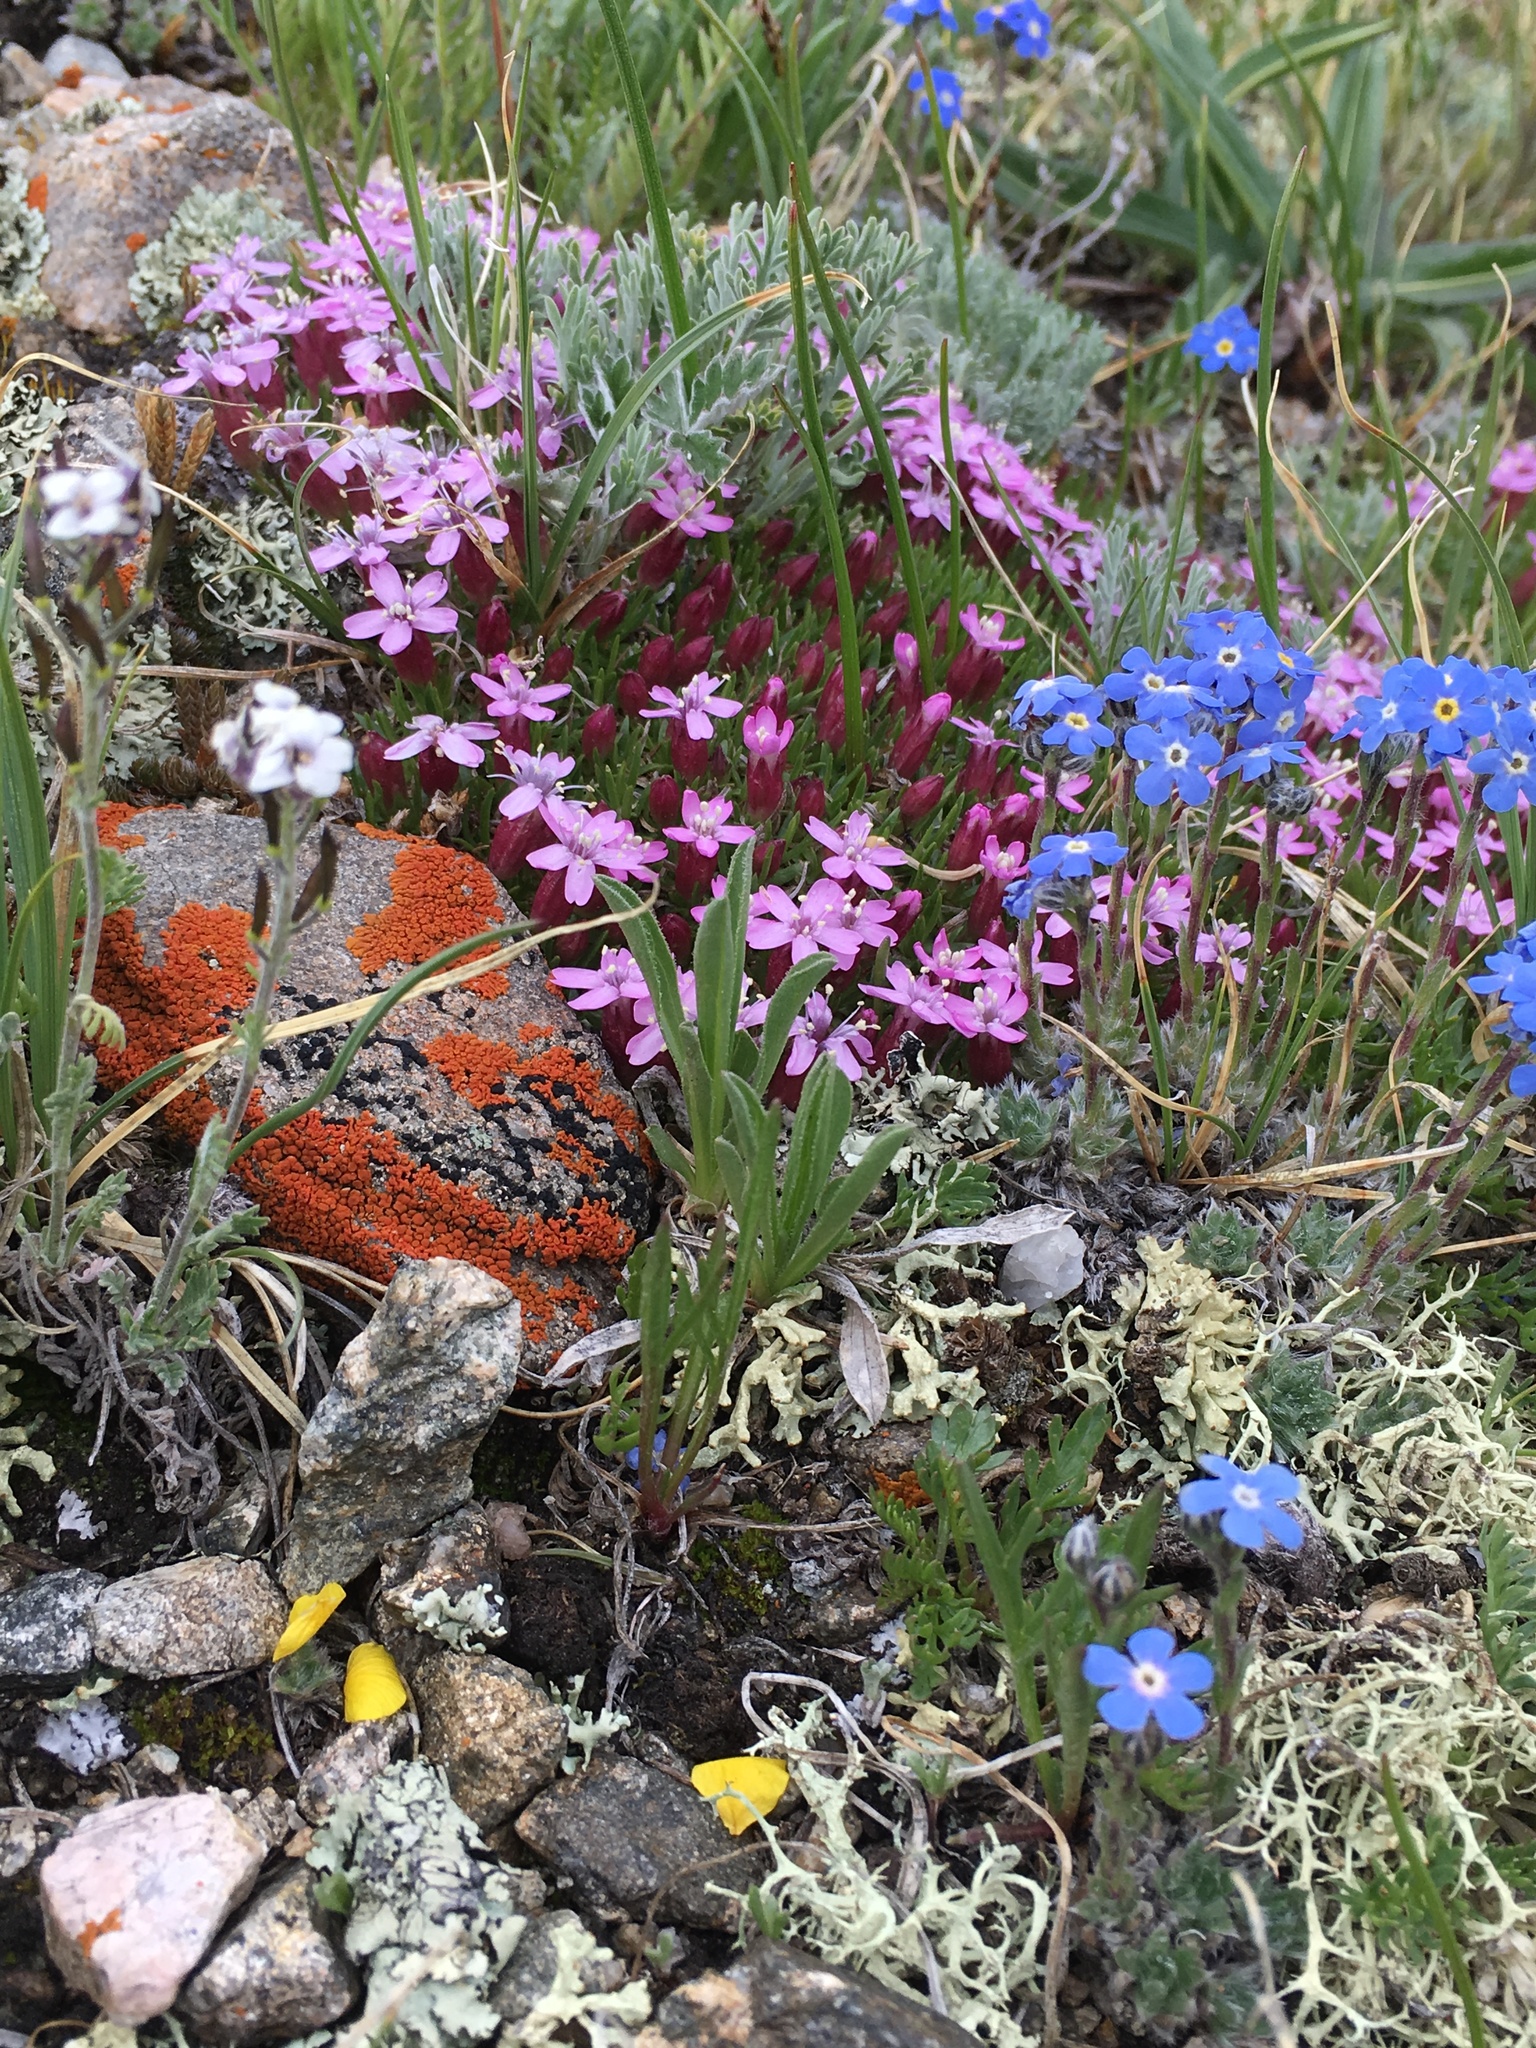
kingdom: Plantae
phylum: Tracheophyta
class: Magnoliopsida
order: Caryophyllales
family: Caryophyllaceae
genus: Silene
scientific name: Silene acaulis
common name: Moss campion
